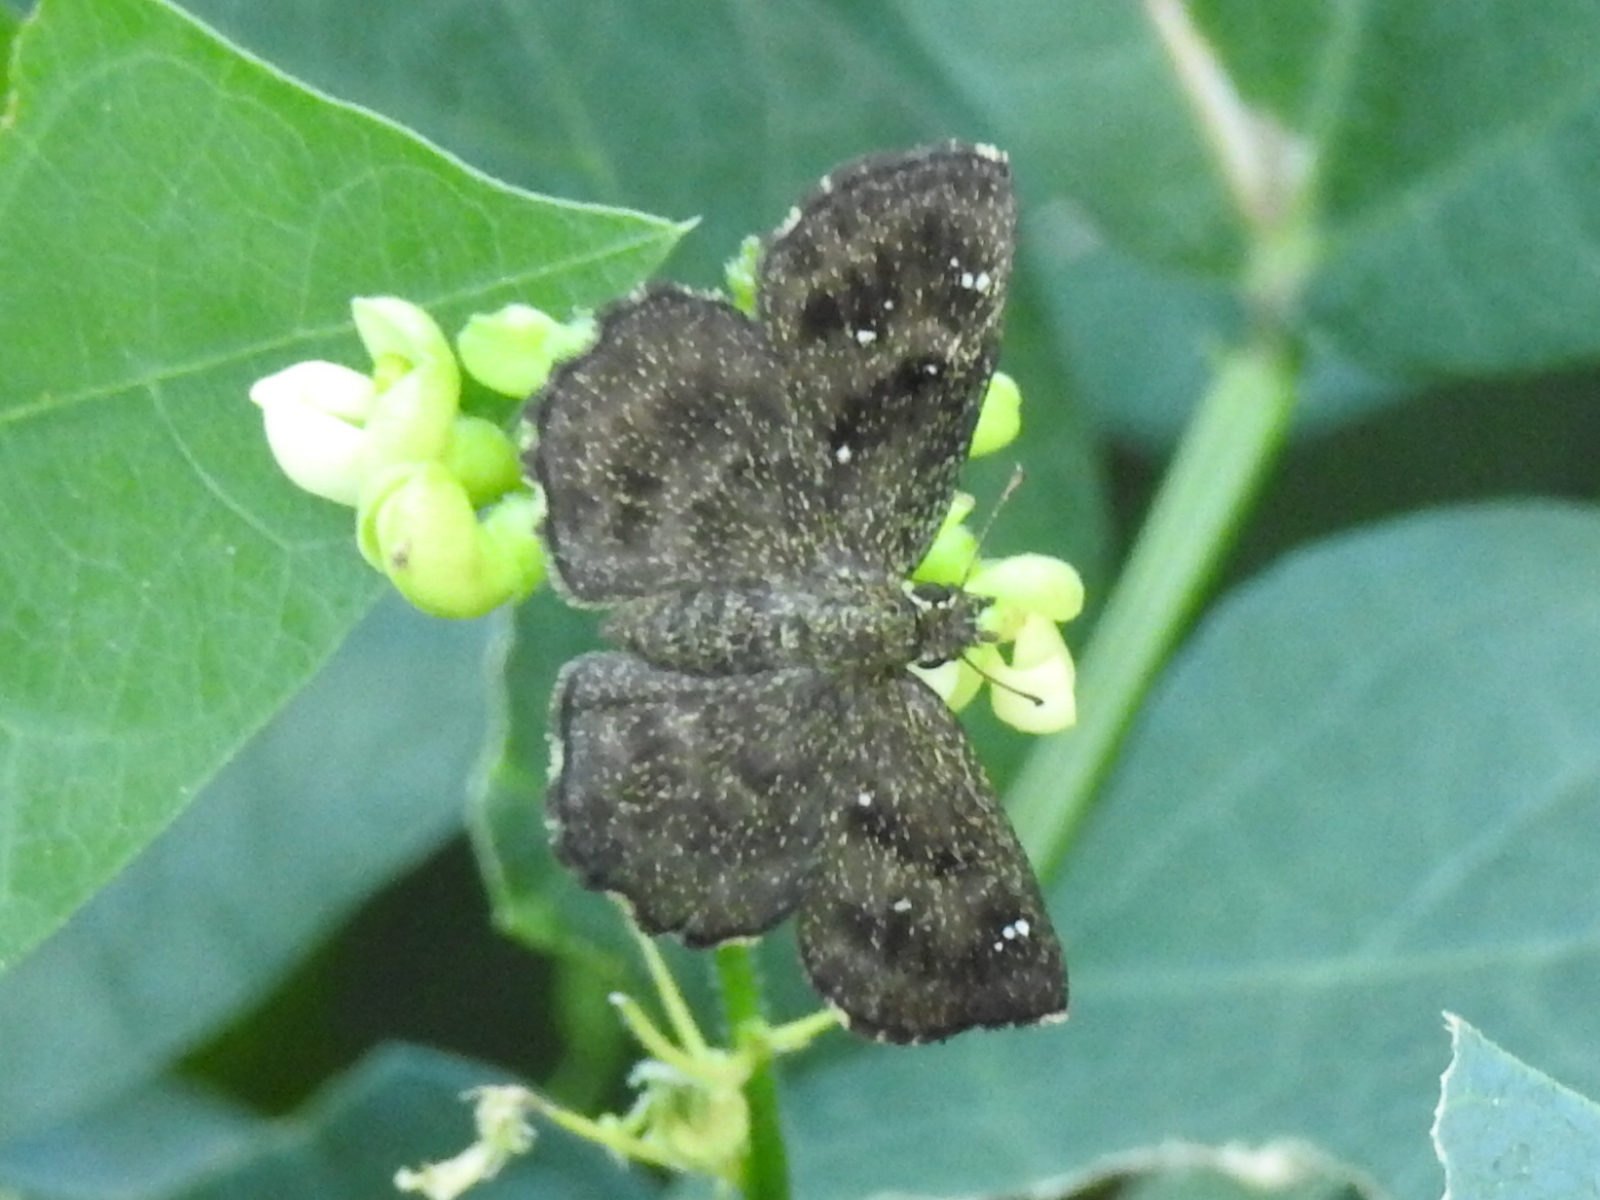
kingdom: Animalia
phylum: Arthropoda
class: Insecta
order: Lepidoptera
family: Hesperiidae
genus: Staphylus
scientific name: Staphylus mazans
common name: Mazans scallopwing
